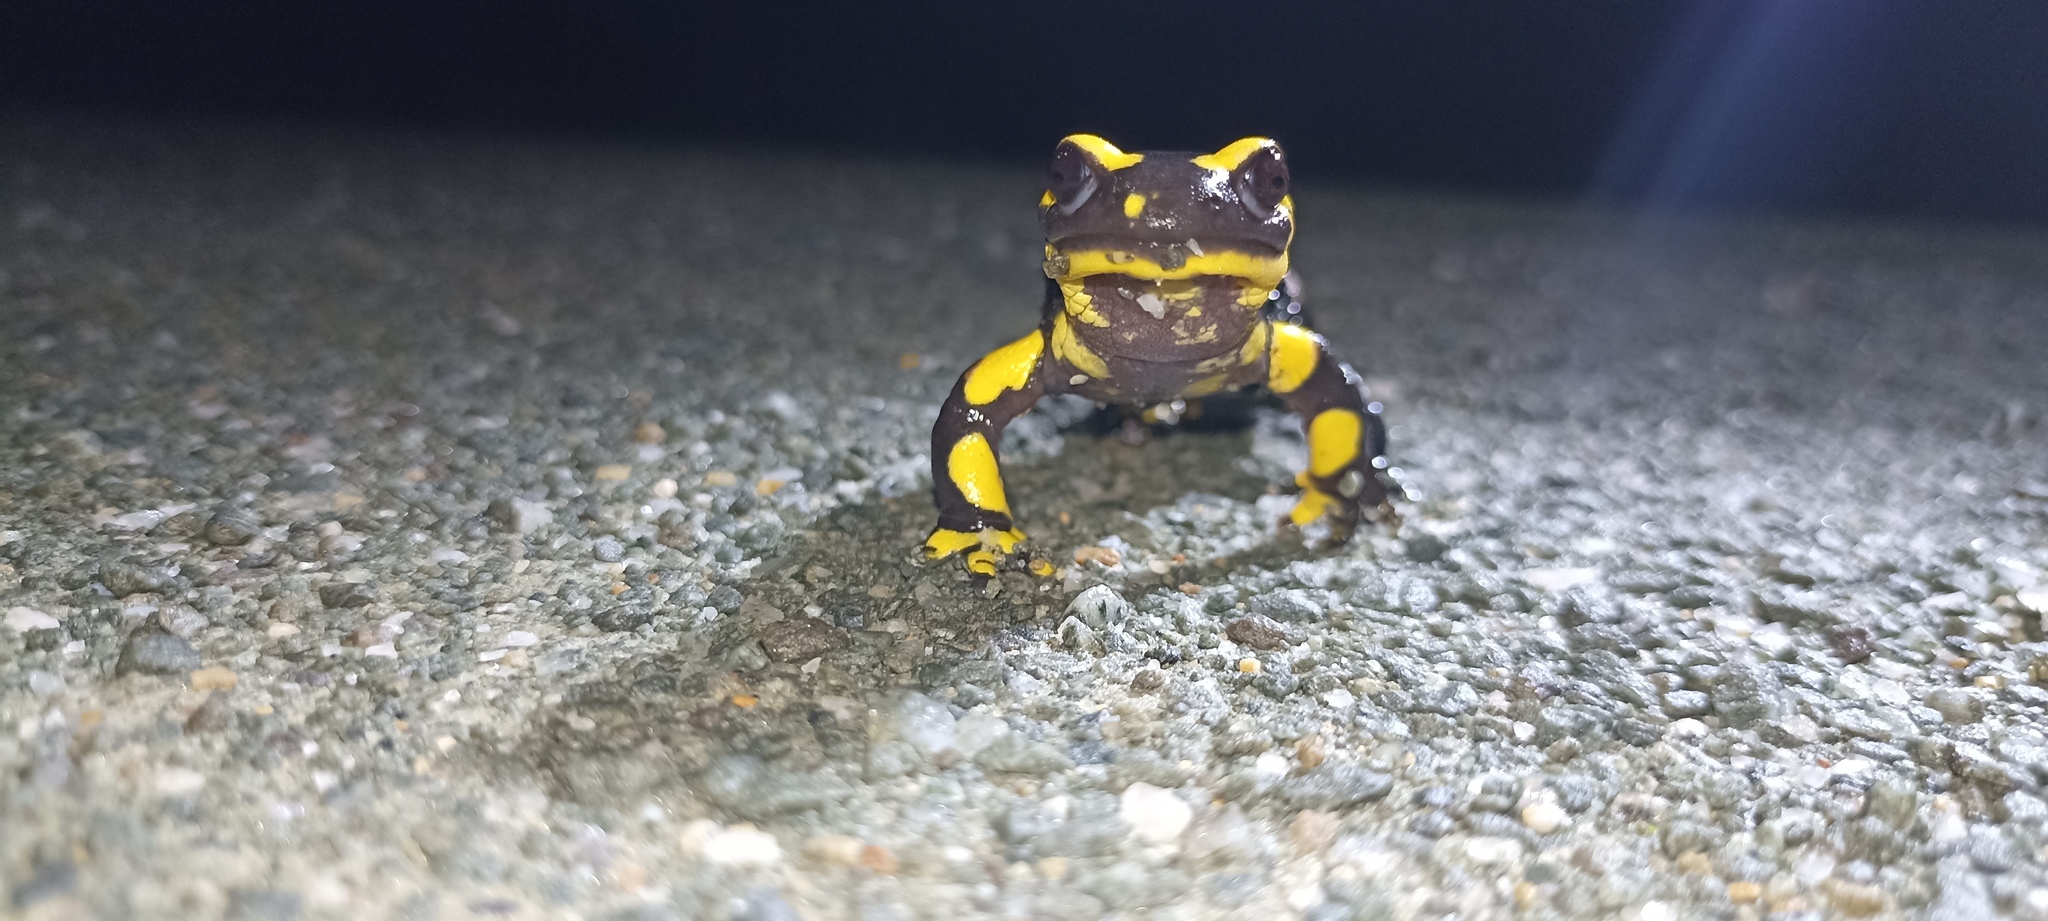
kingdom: Animalia
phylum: Chordata
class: Amphibia
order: Caudata
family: Salamandridae
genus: Salamandra
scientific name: Salamandra salamandra
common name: Fire salamander
